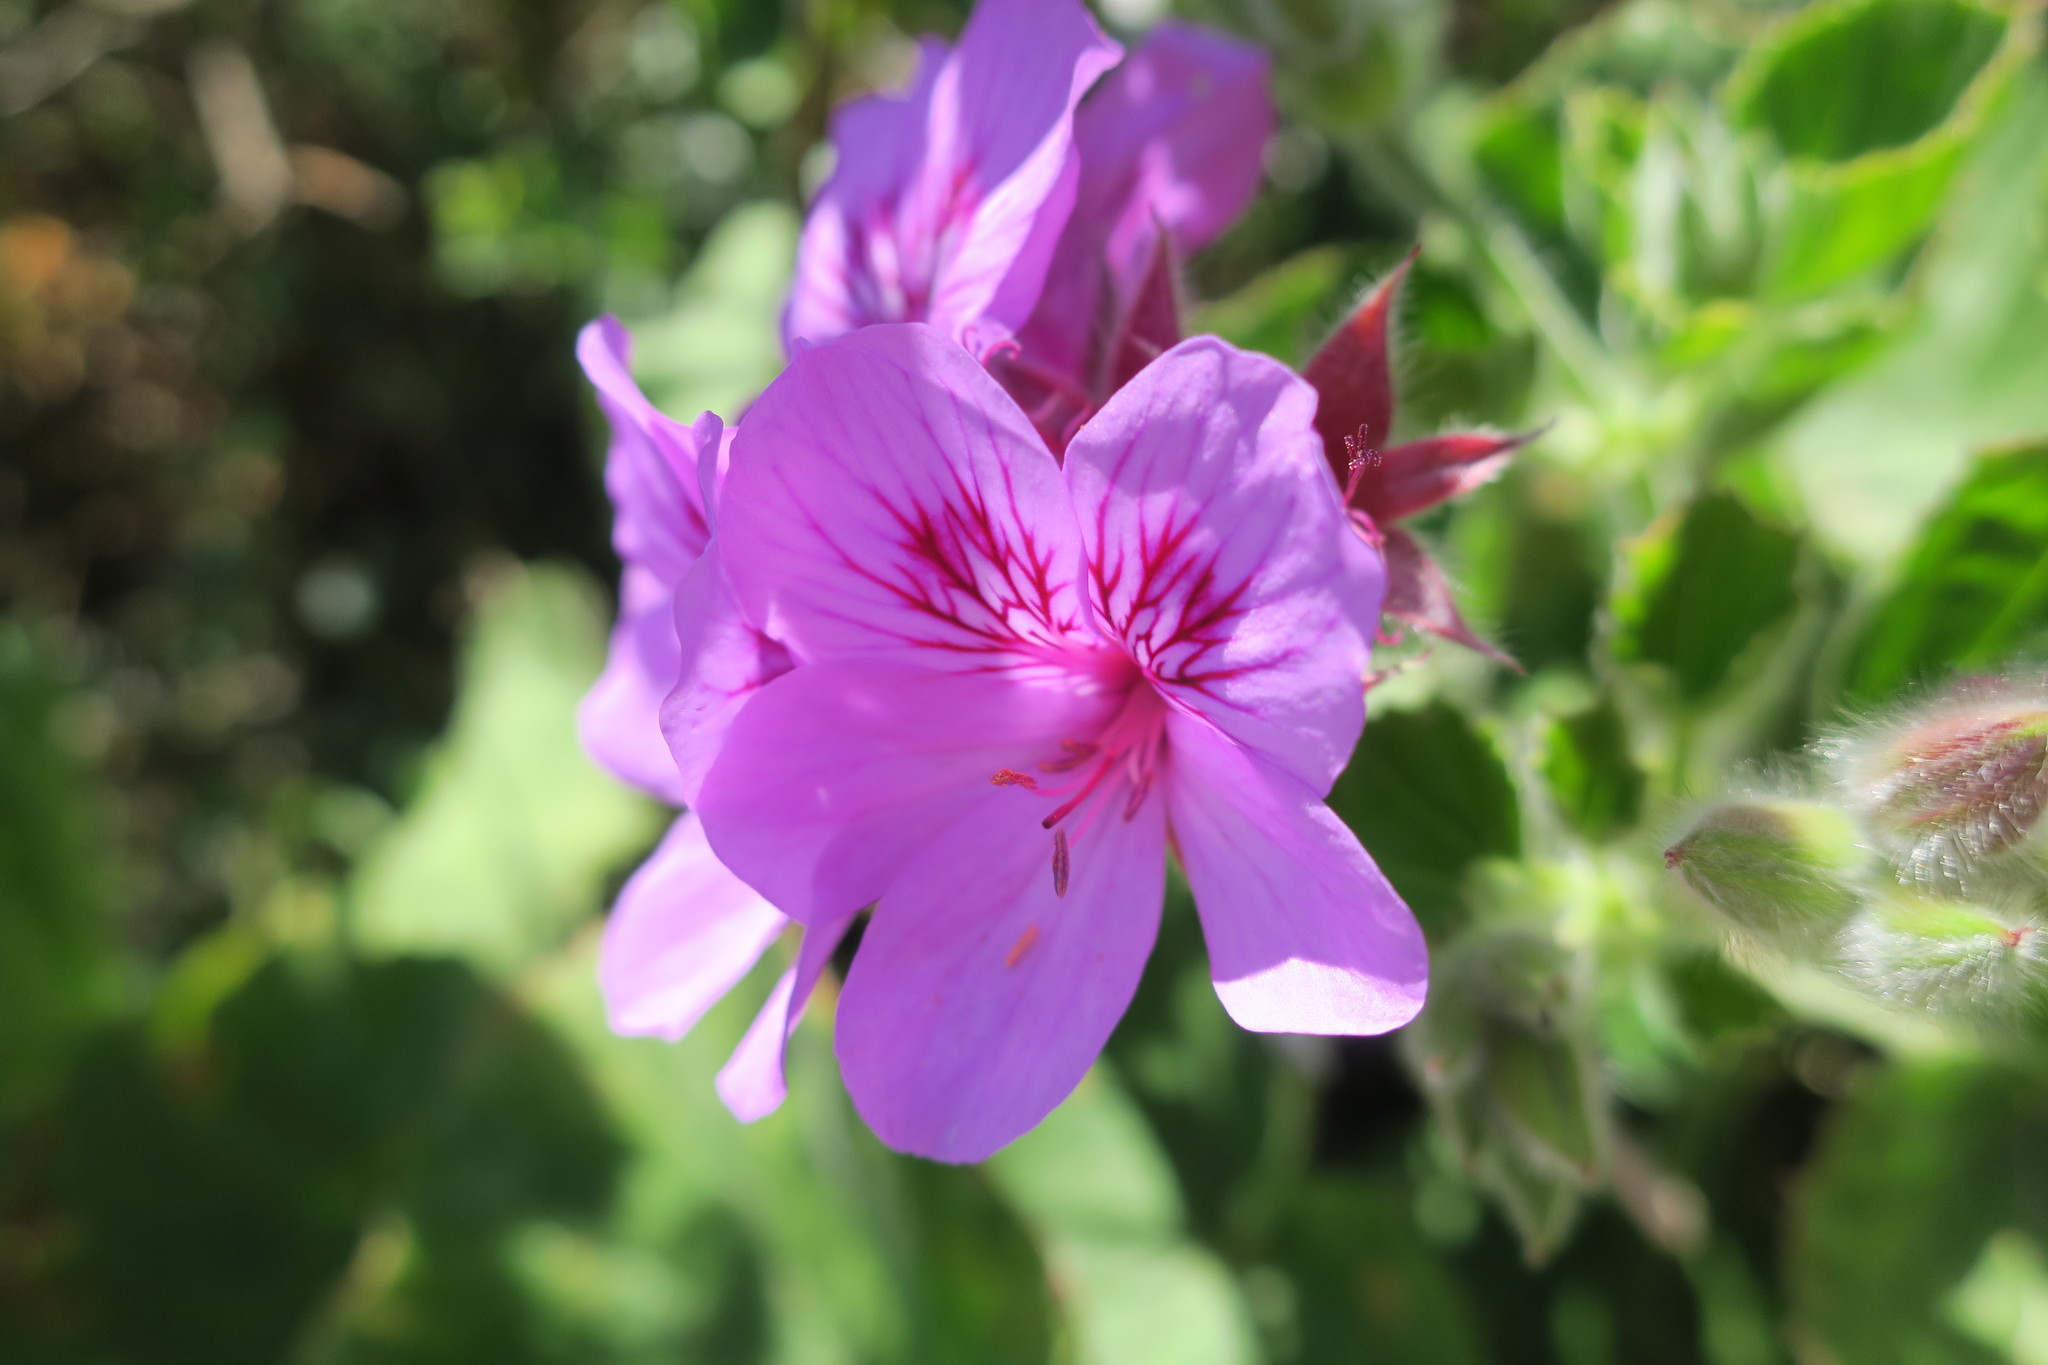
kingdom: Plantae
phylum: Tracheophyta
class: Magnoliopsida
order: Geraniales
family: Geraniaceae
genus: Pelargonium
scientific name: Pelargonium cucullatum
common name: Tree pelargonium
